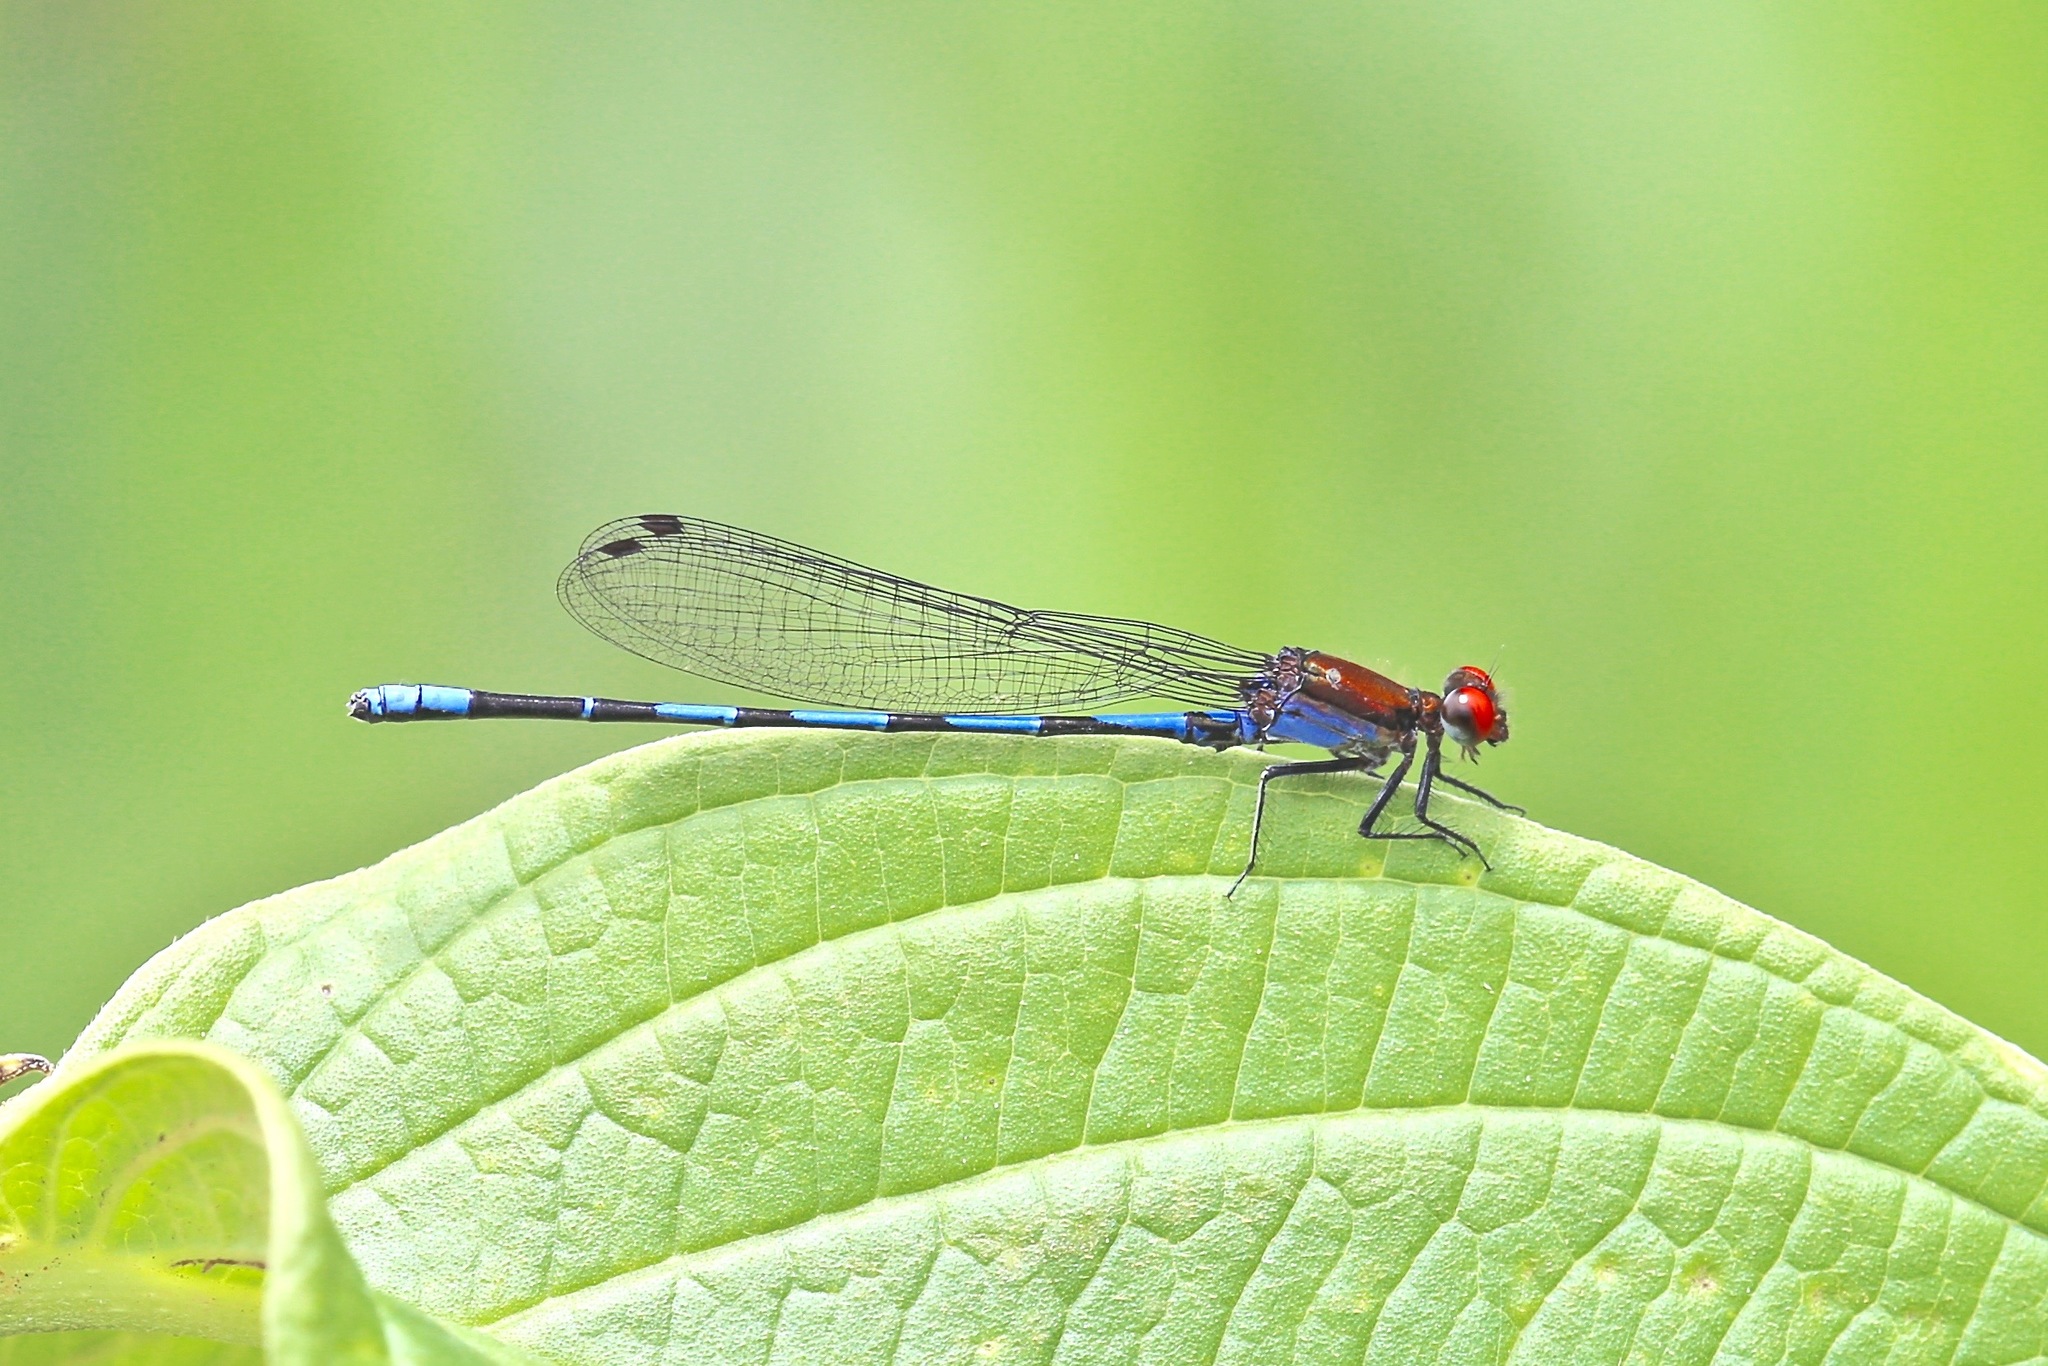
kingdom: Animalia
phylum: Arthropoda
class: Insecta
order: Odonata
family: Coenagrionidae
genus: Argia
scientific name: Argia oenea
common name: Fiery-eyed dancer
